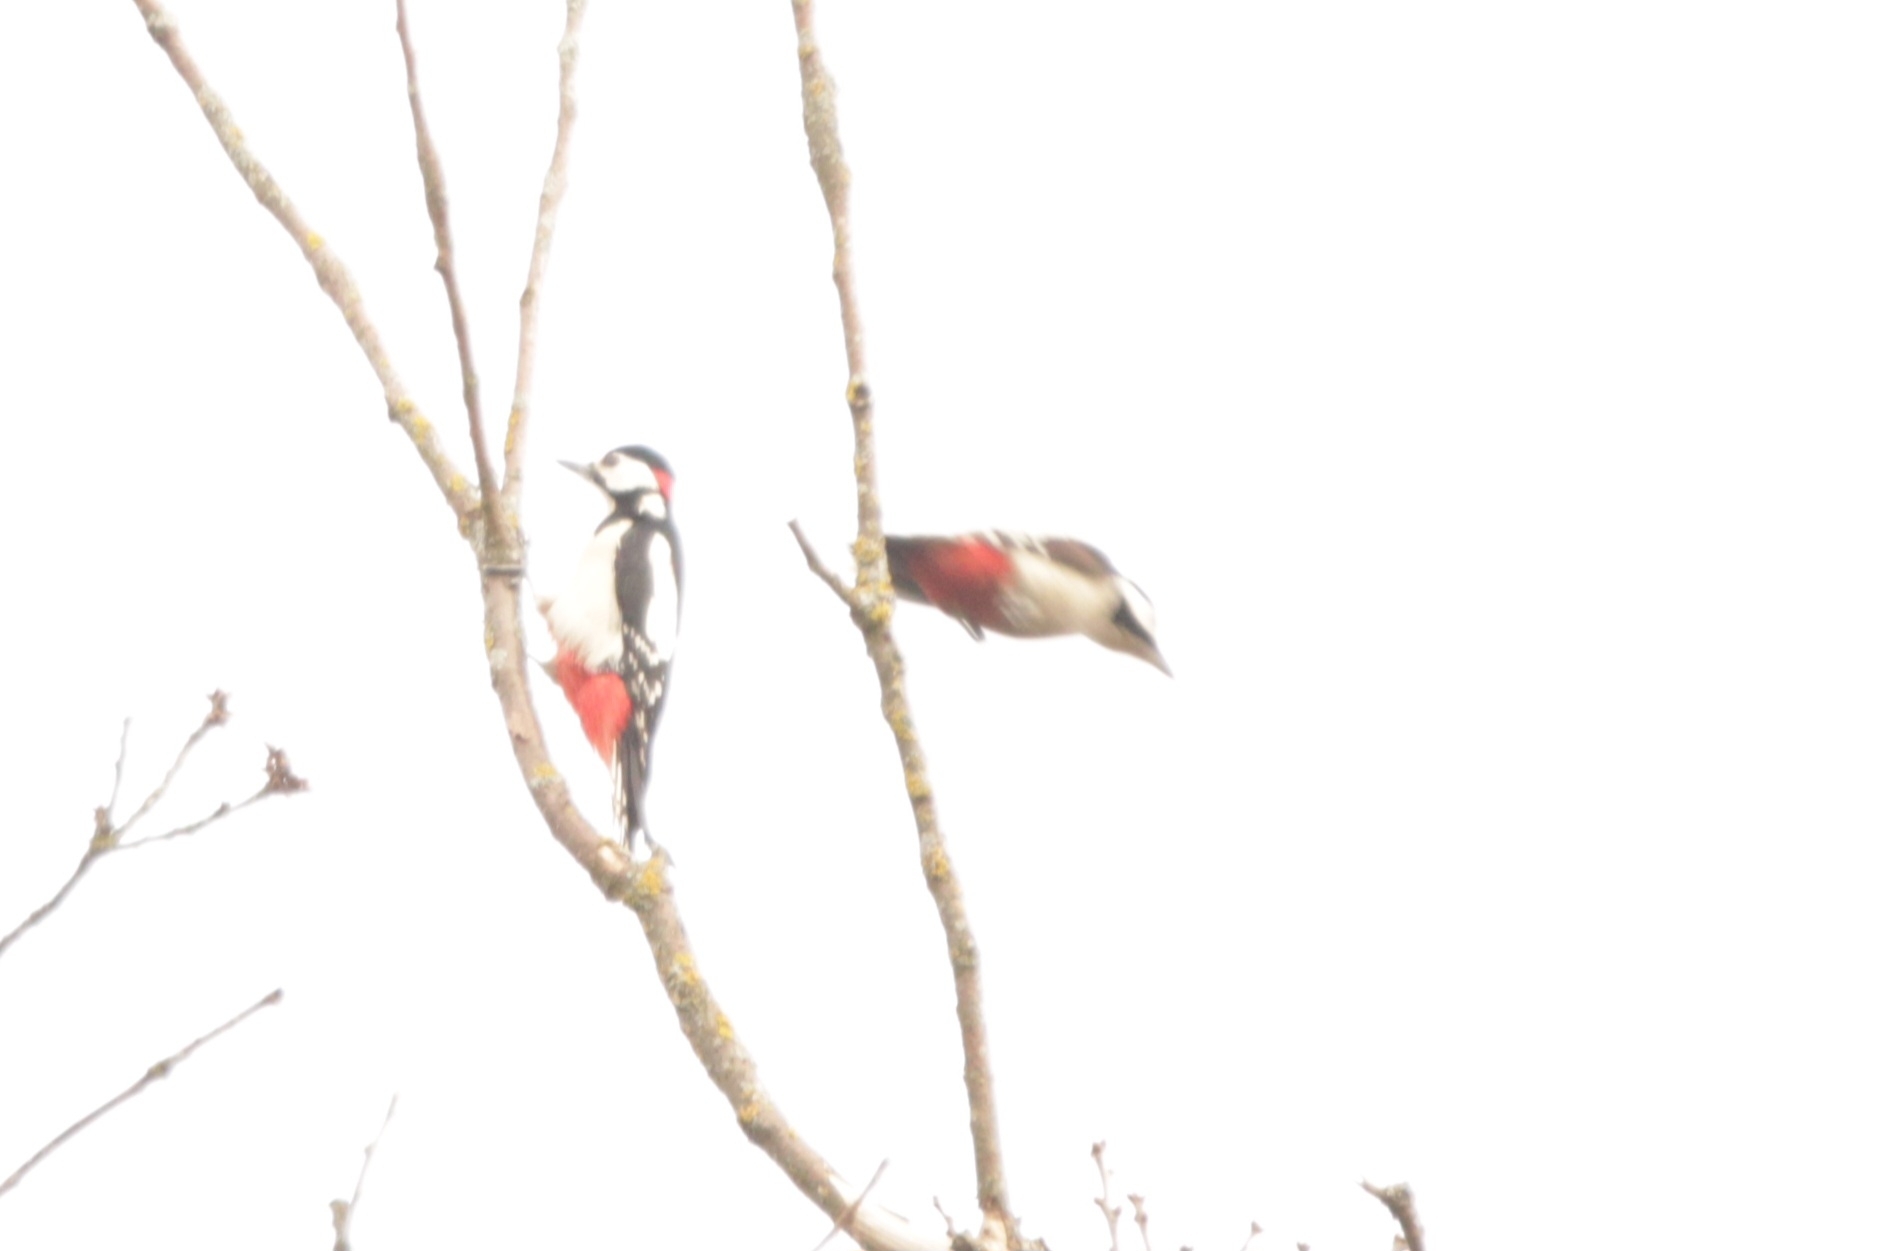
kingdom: Animalia
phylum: Chordata
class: Aves
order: Piciformes
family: Picidae
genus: Dendrocopos
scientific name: Dendrocopos major
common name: Great spotted woodpecker
